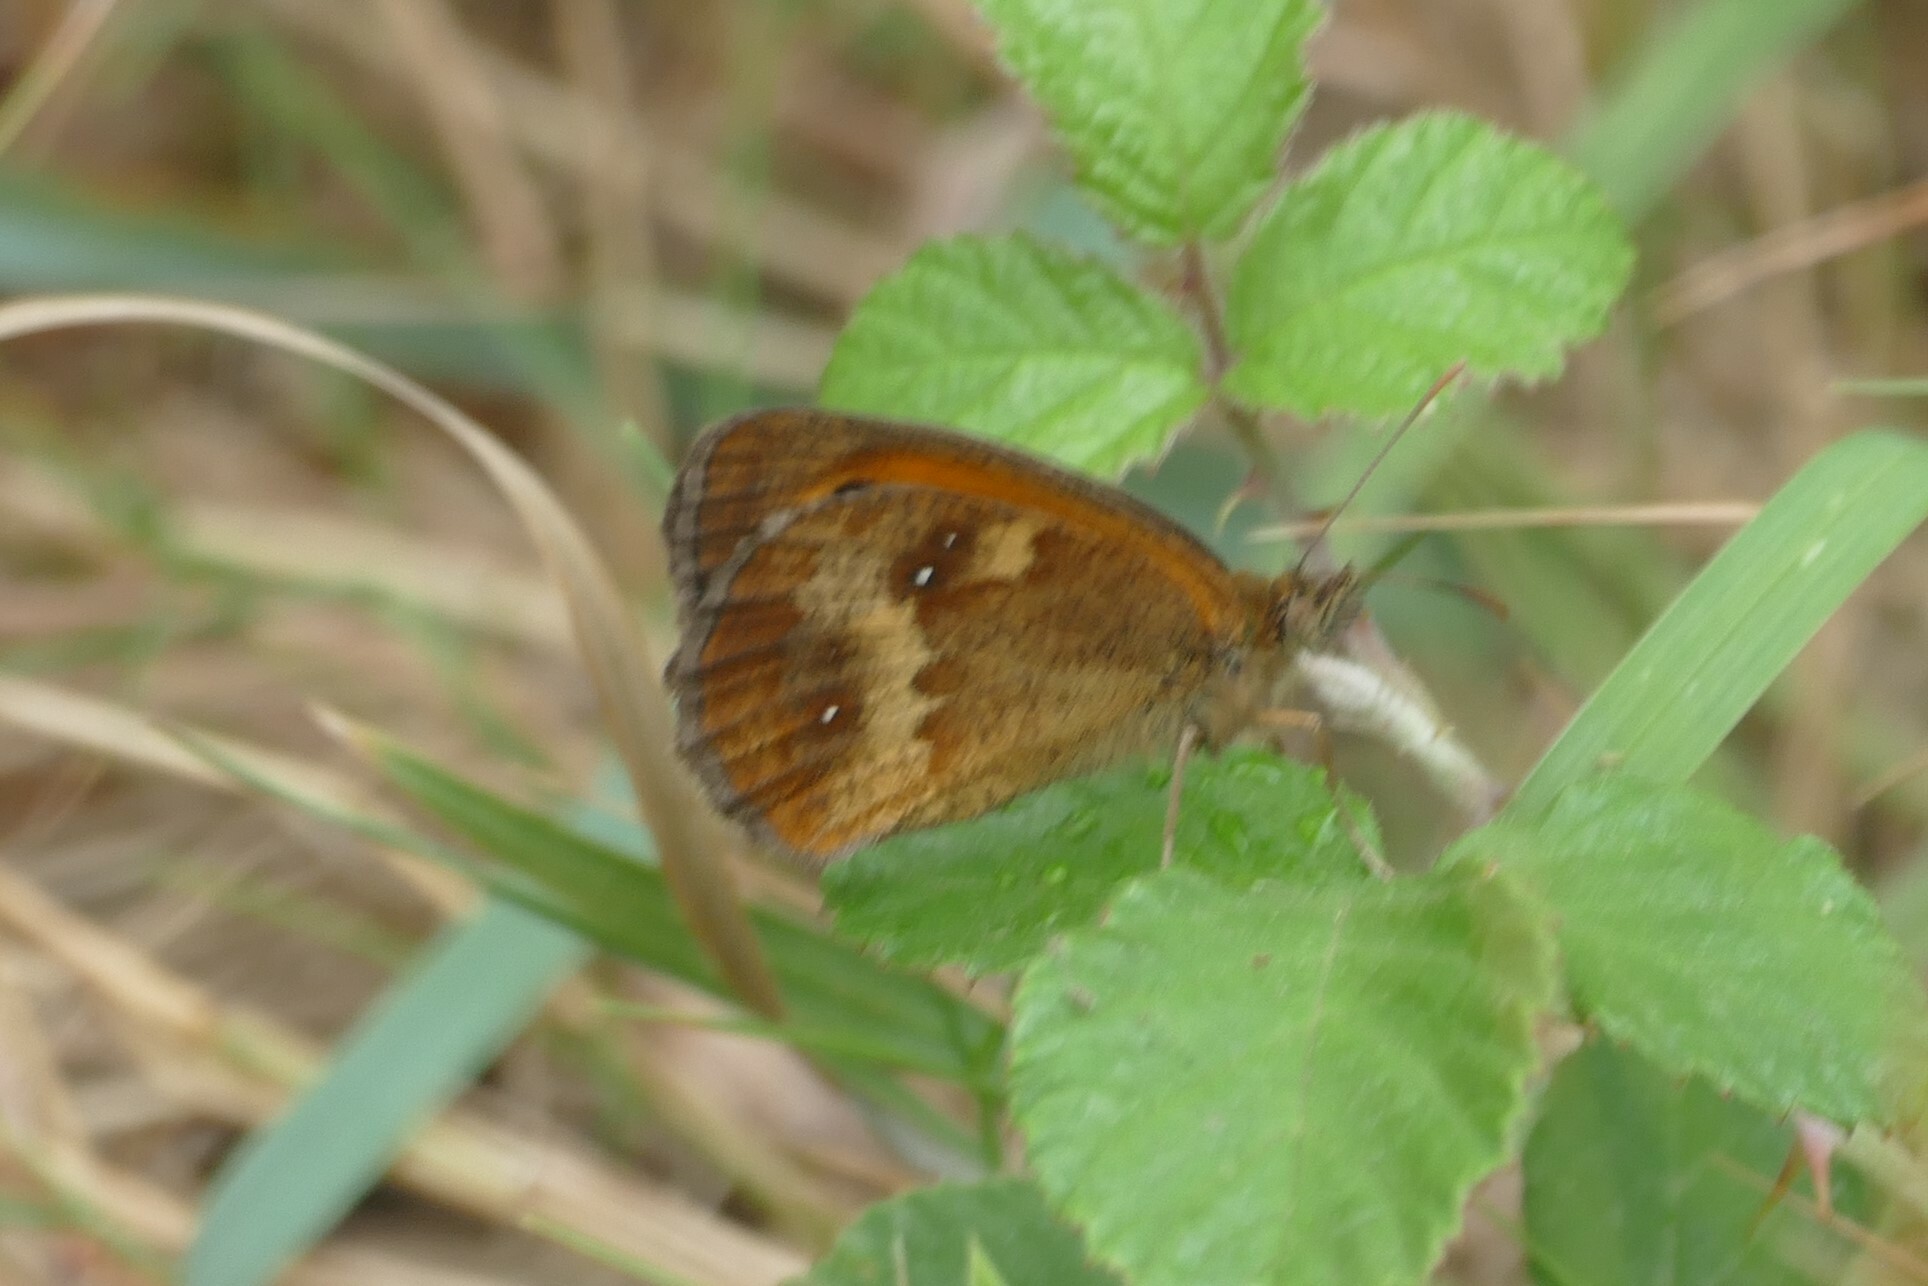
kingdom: Animalia
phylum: Arthropoda
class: Insecta
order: Lepidoptera
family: Nymphalidae
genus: Pyronia
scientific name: Pyronia tithonus
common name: Gatekeeper
